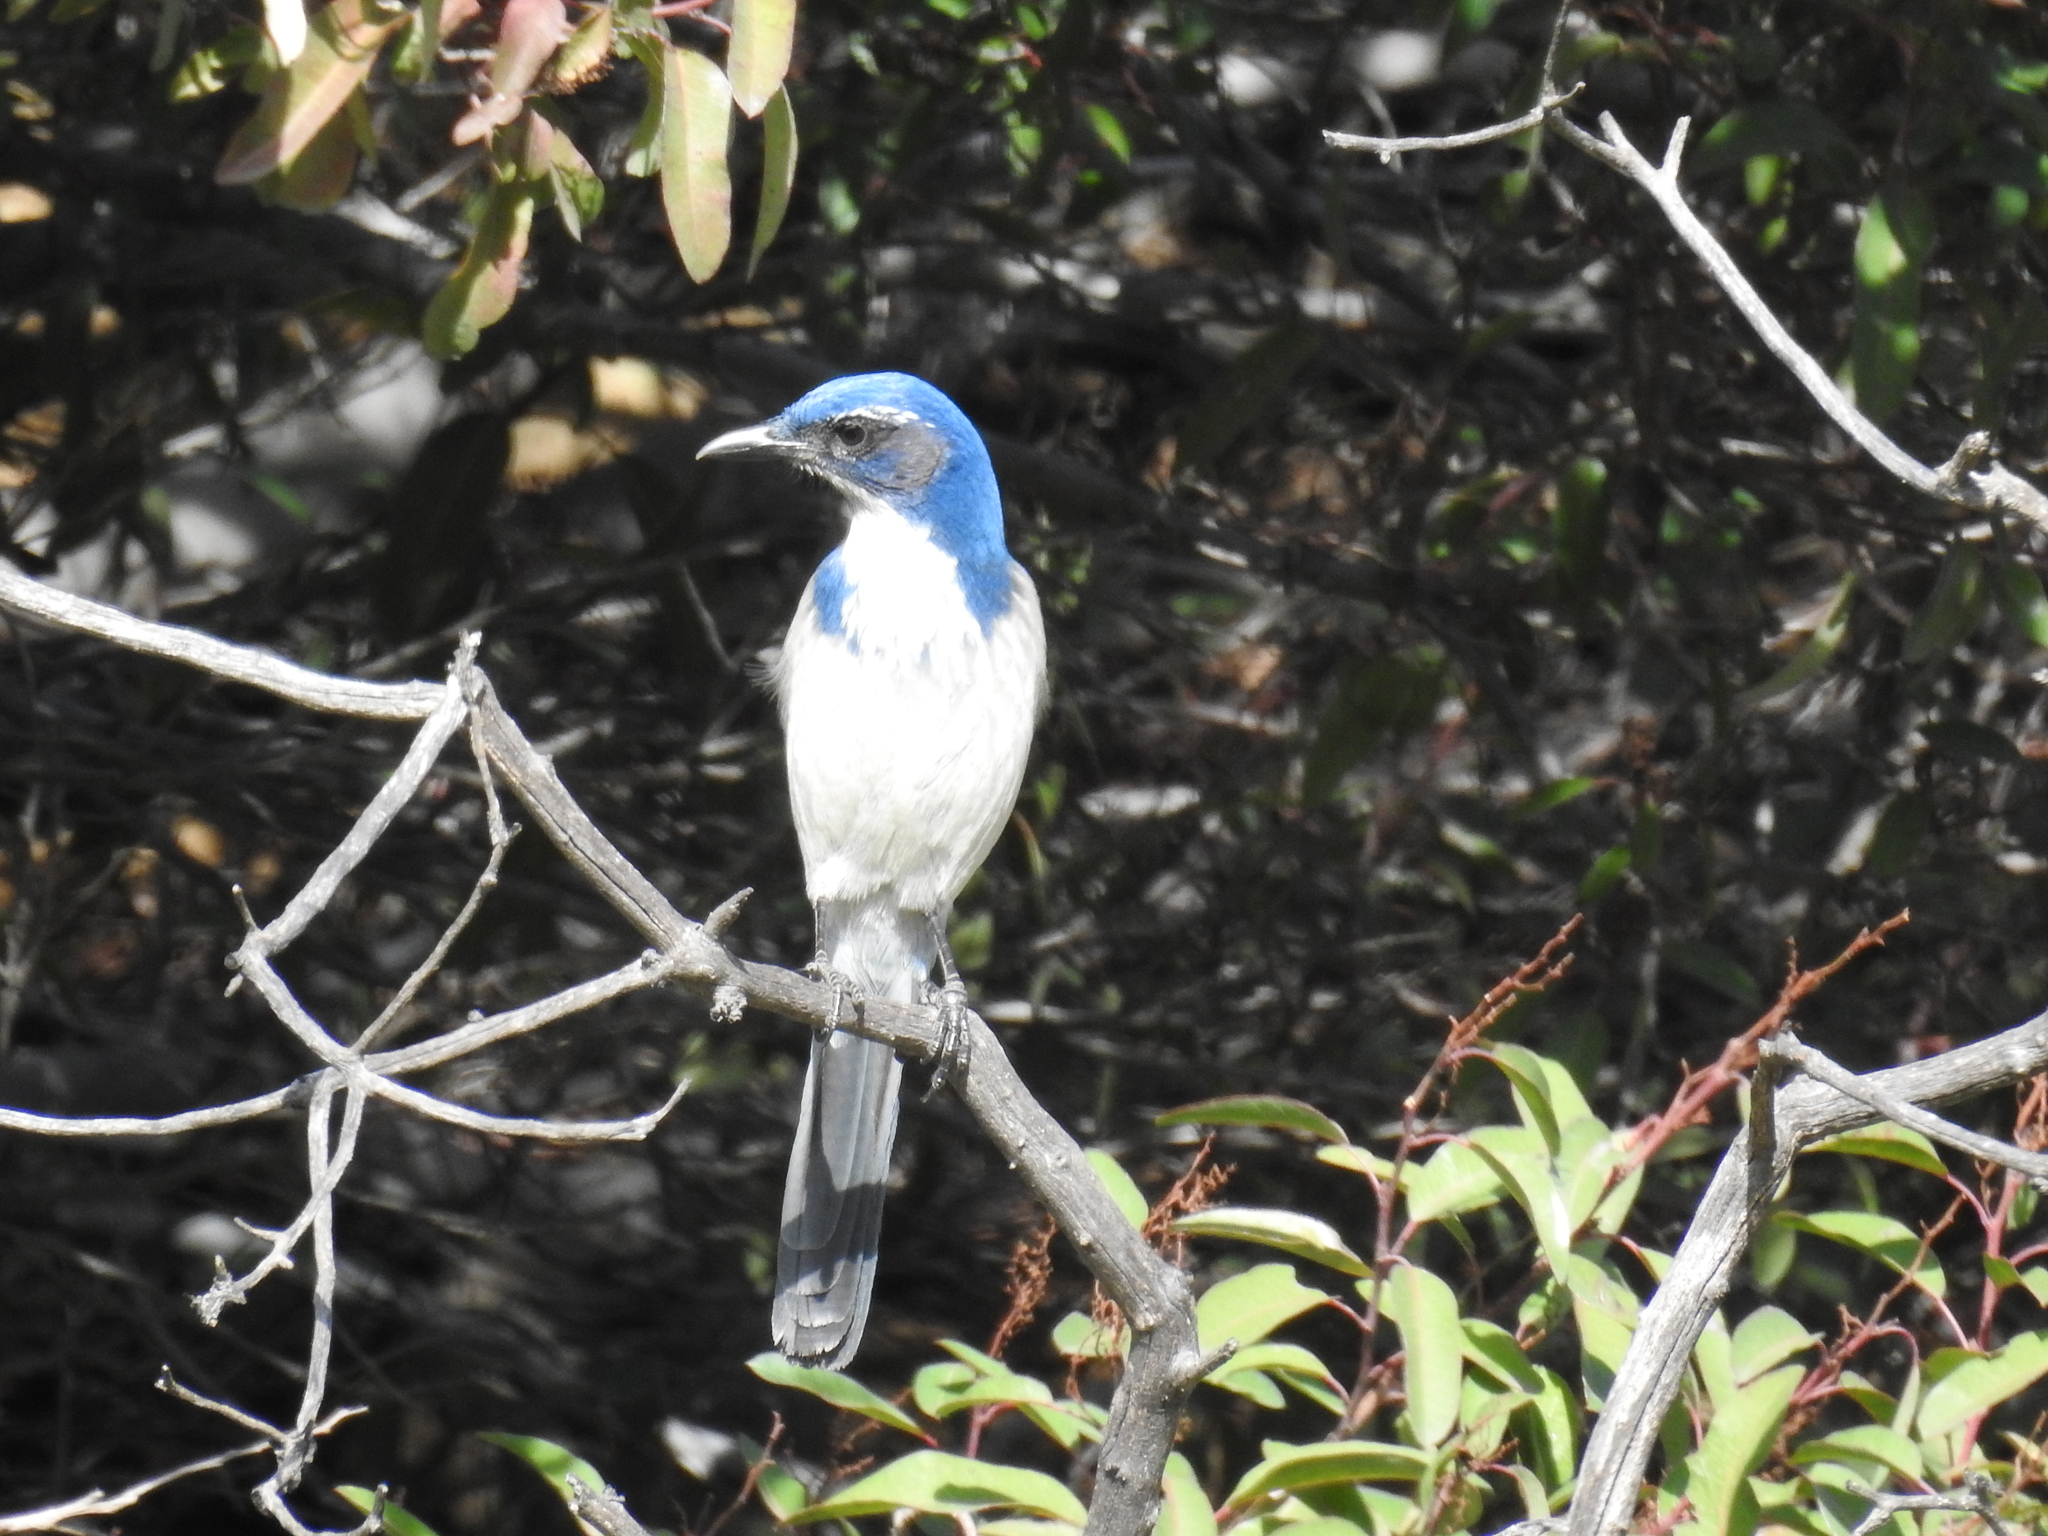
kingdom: Animalia
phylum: Chordata
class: Aves
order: Passeriformes
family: Corvidae
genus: Aphelocoma
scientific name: Aphelocoma californica
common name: California scrub-jay
